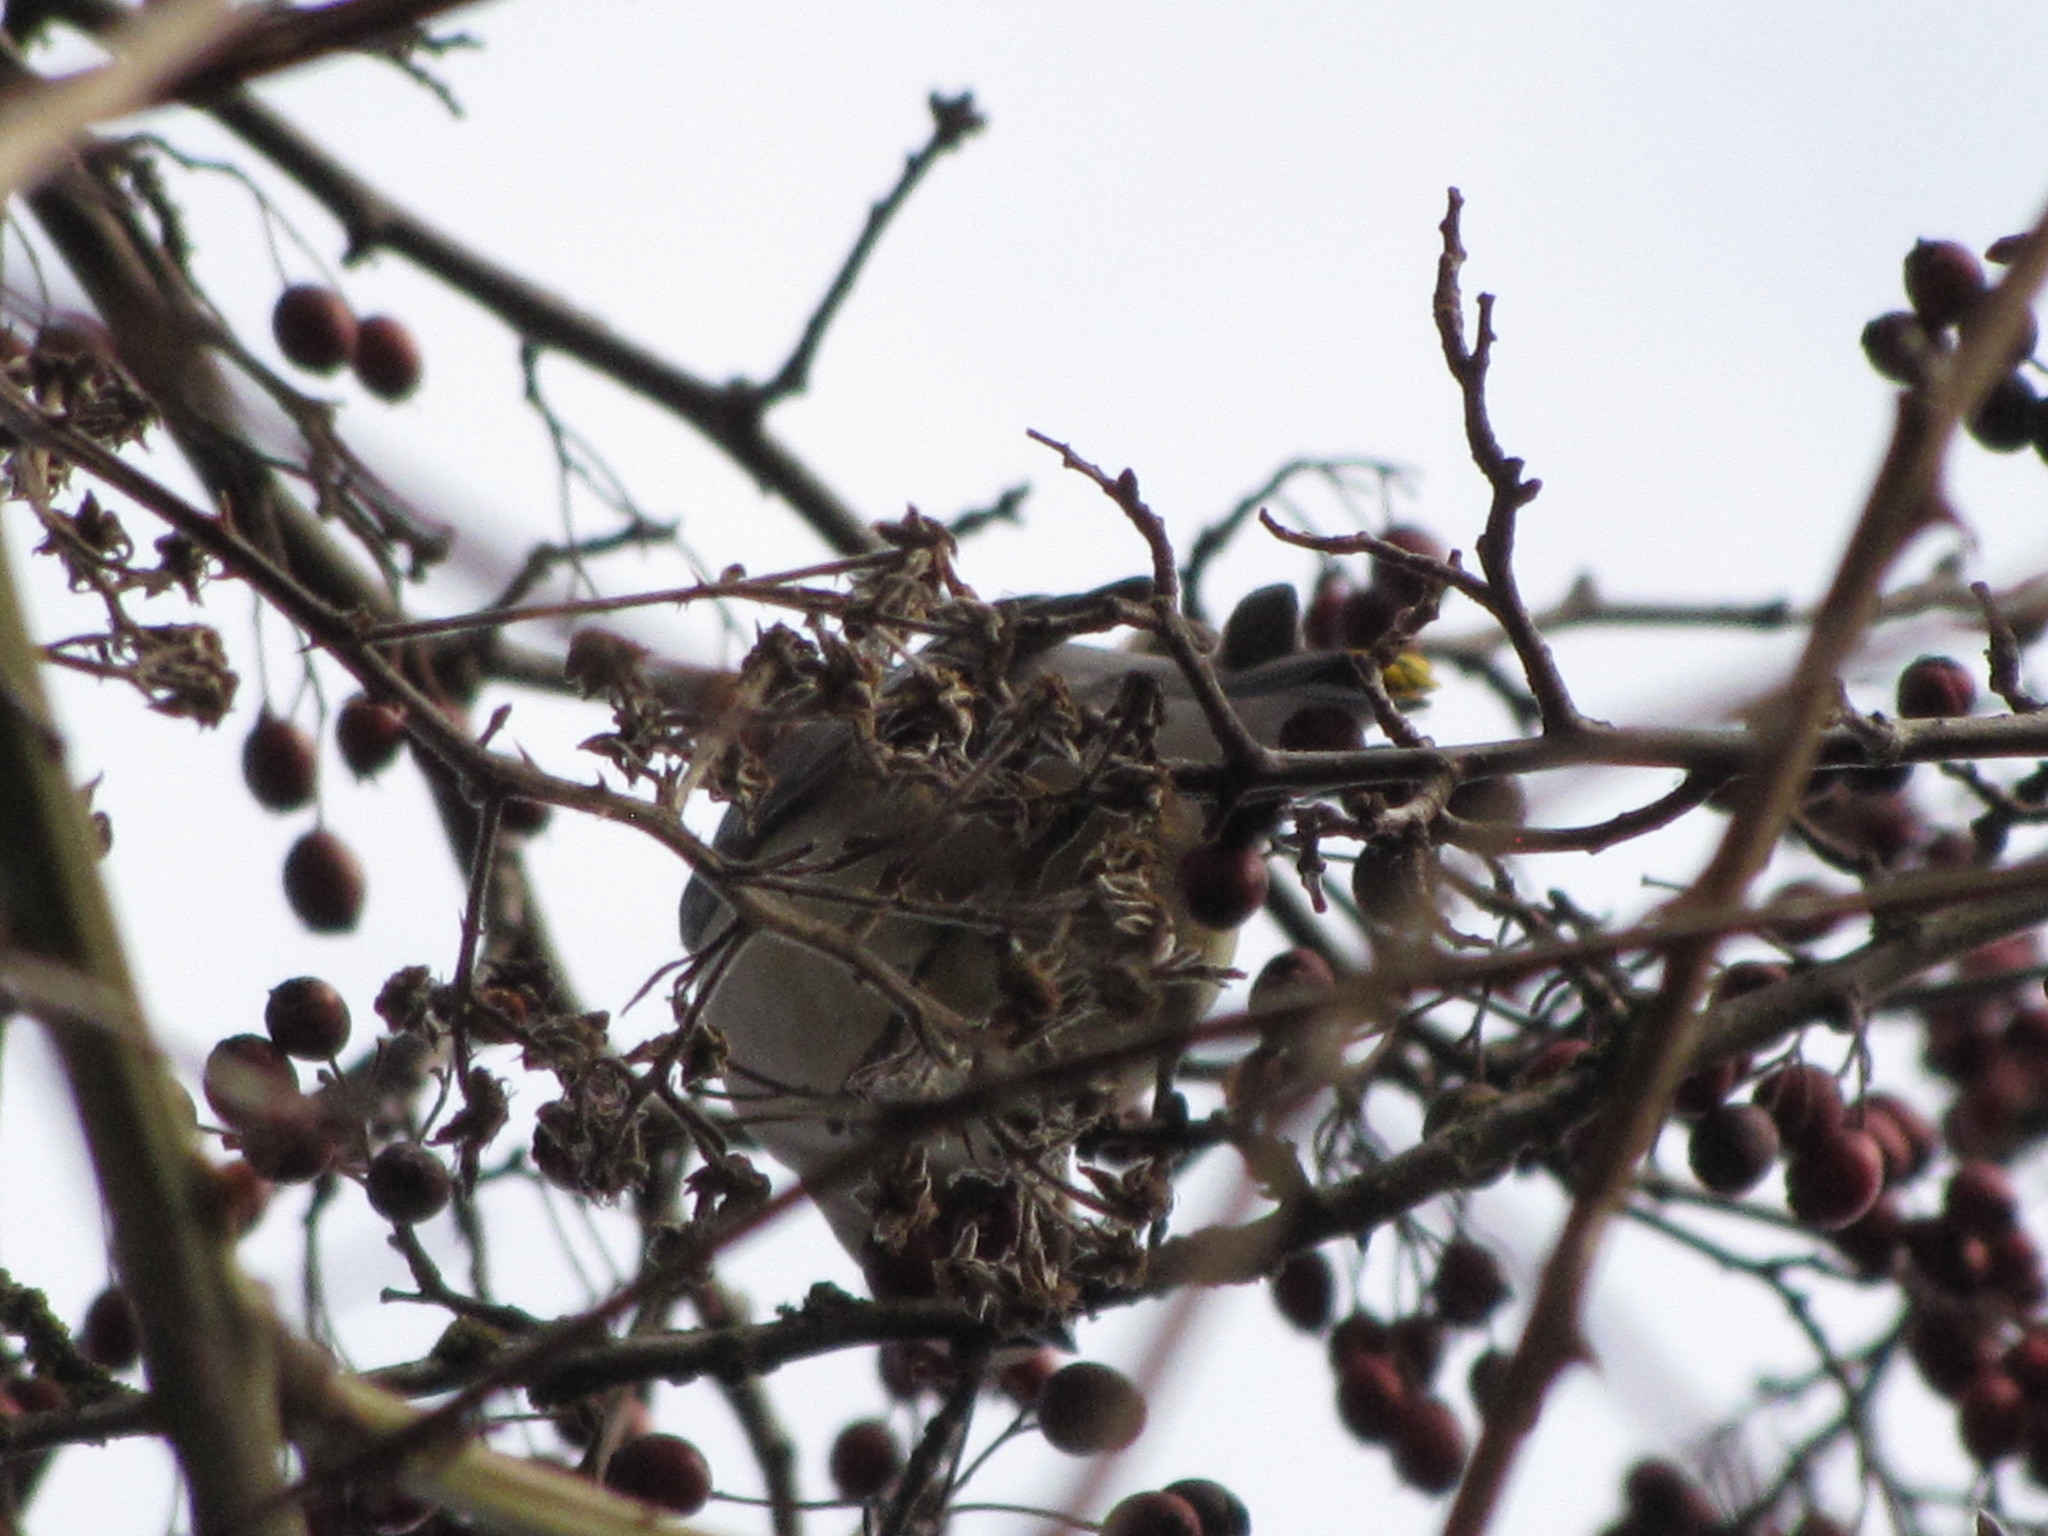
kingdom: Animalia
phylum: Chordata
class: Aves
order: Passeriformes
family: Bombycillidae
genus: Bombycilla
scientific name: Bombycilla cedrorum
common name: Cedar waxwing
